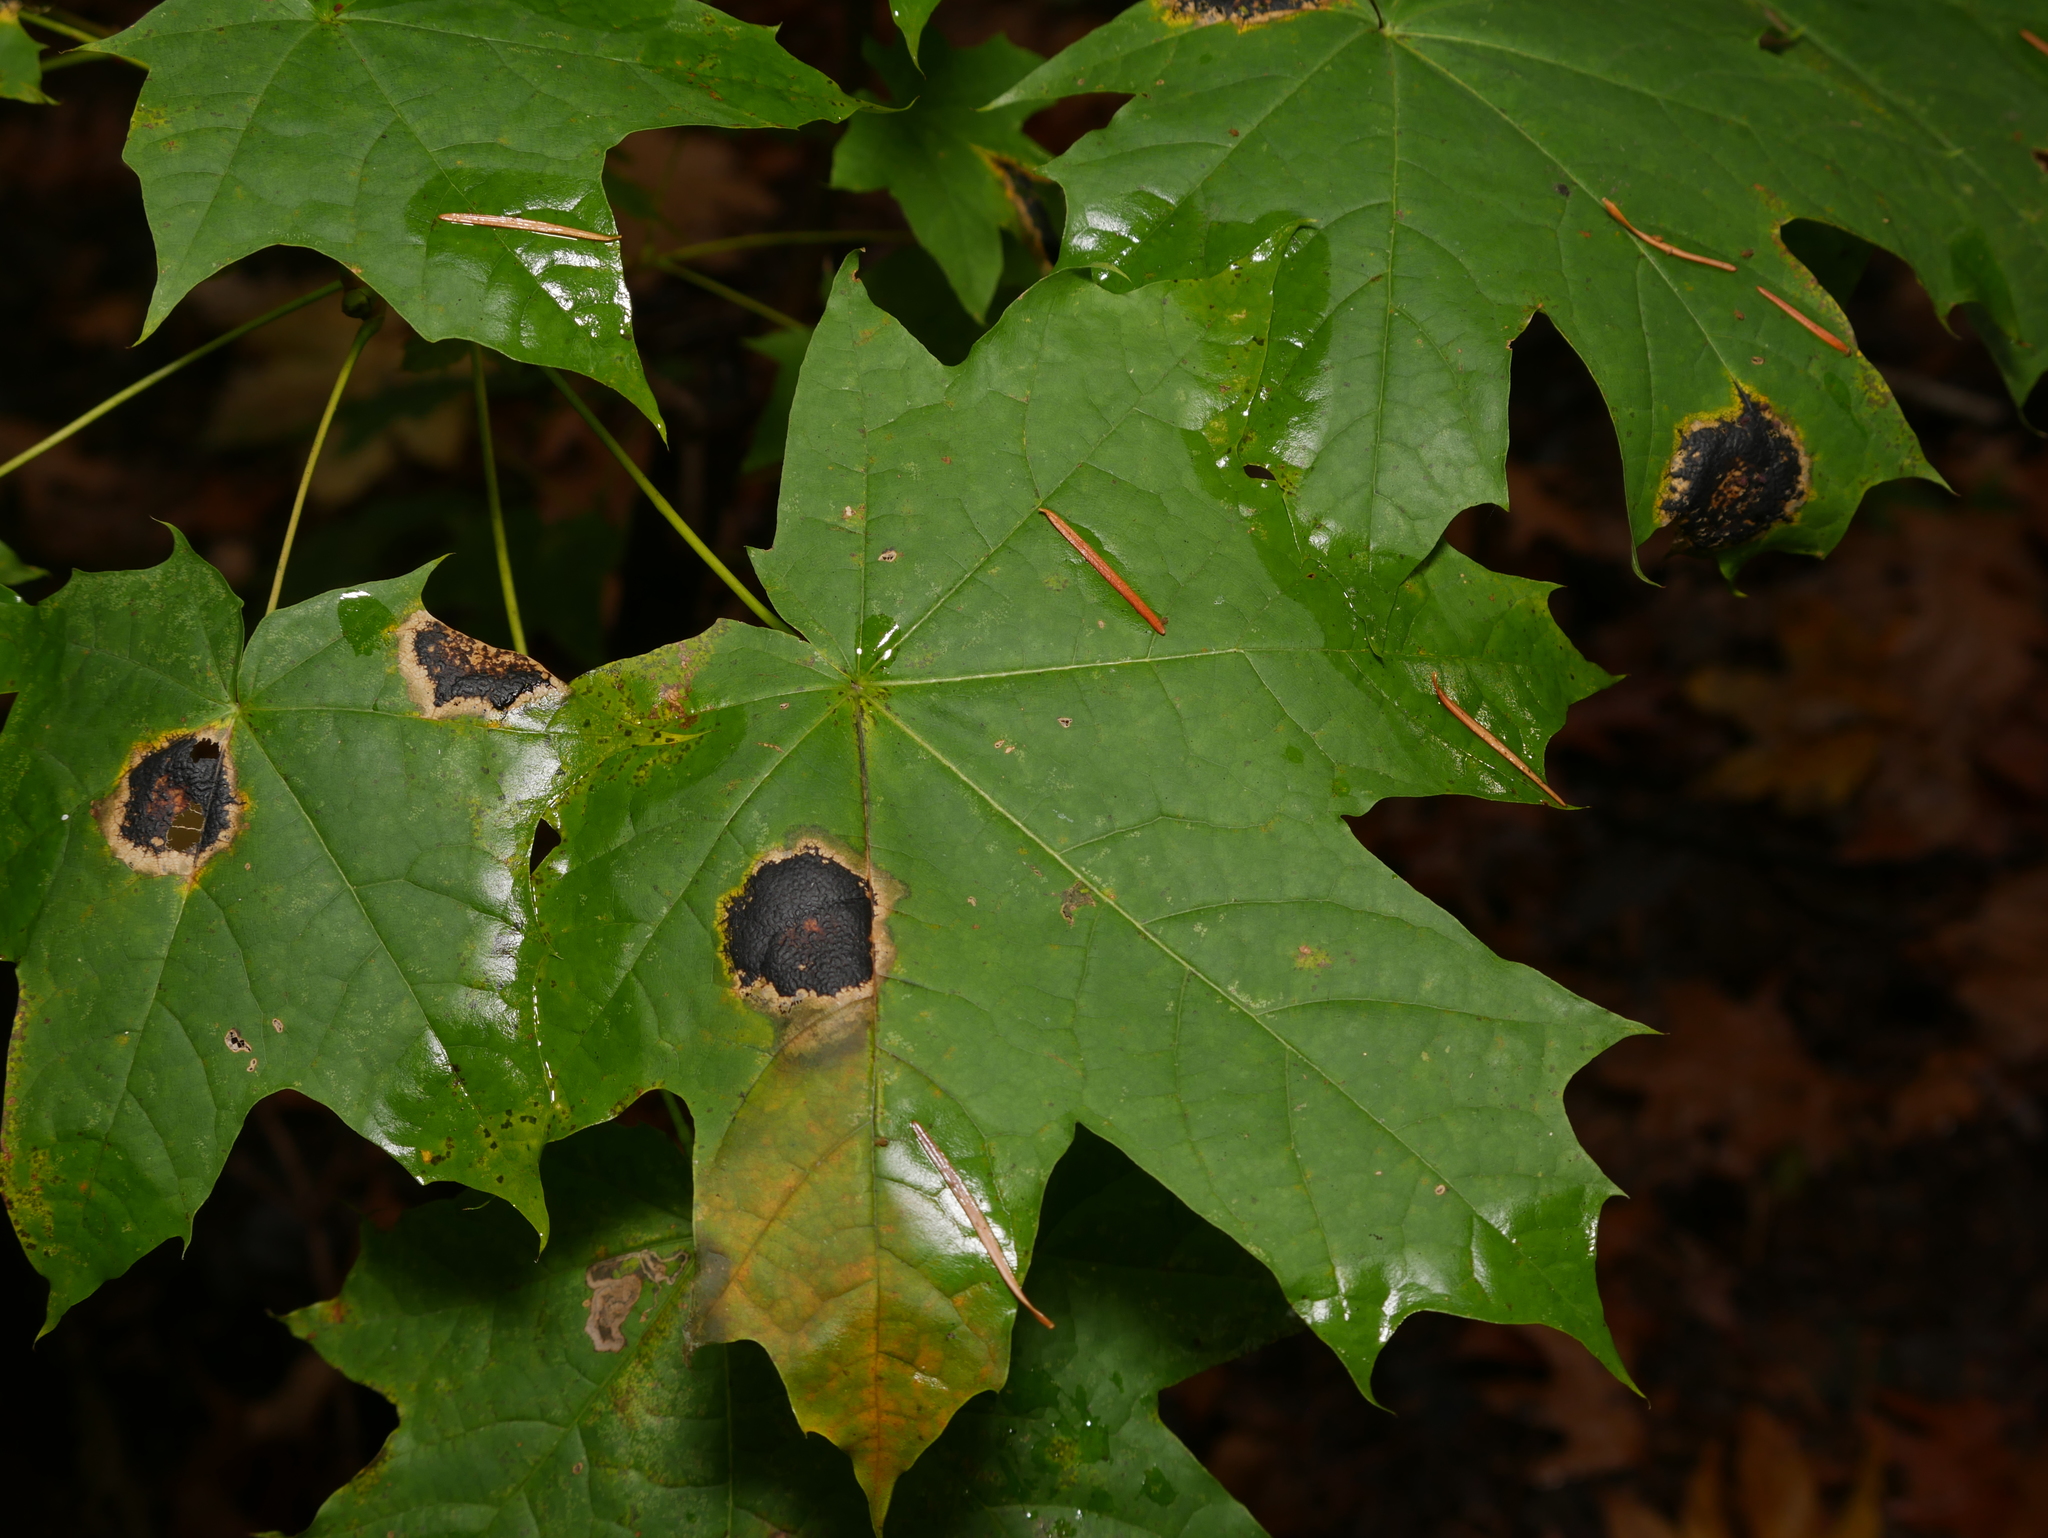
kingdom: Plantae
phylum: Tracheophyta
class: Magnoliopsida
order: Sapindales
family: Sapindaceae
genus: Acer
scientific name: Acer platanoides
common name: Norway maple
